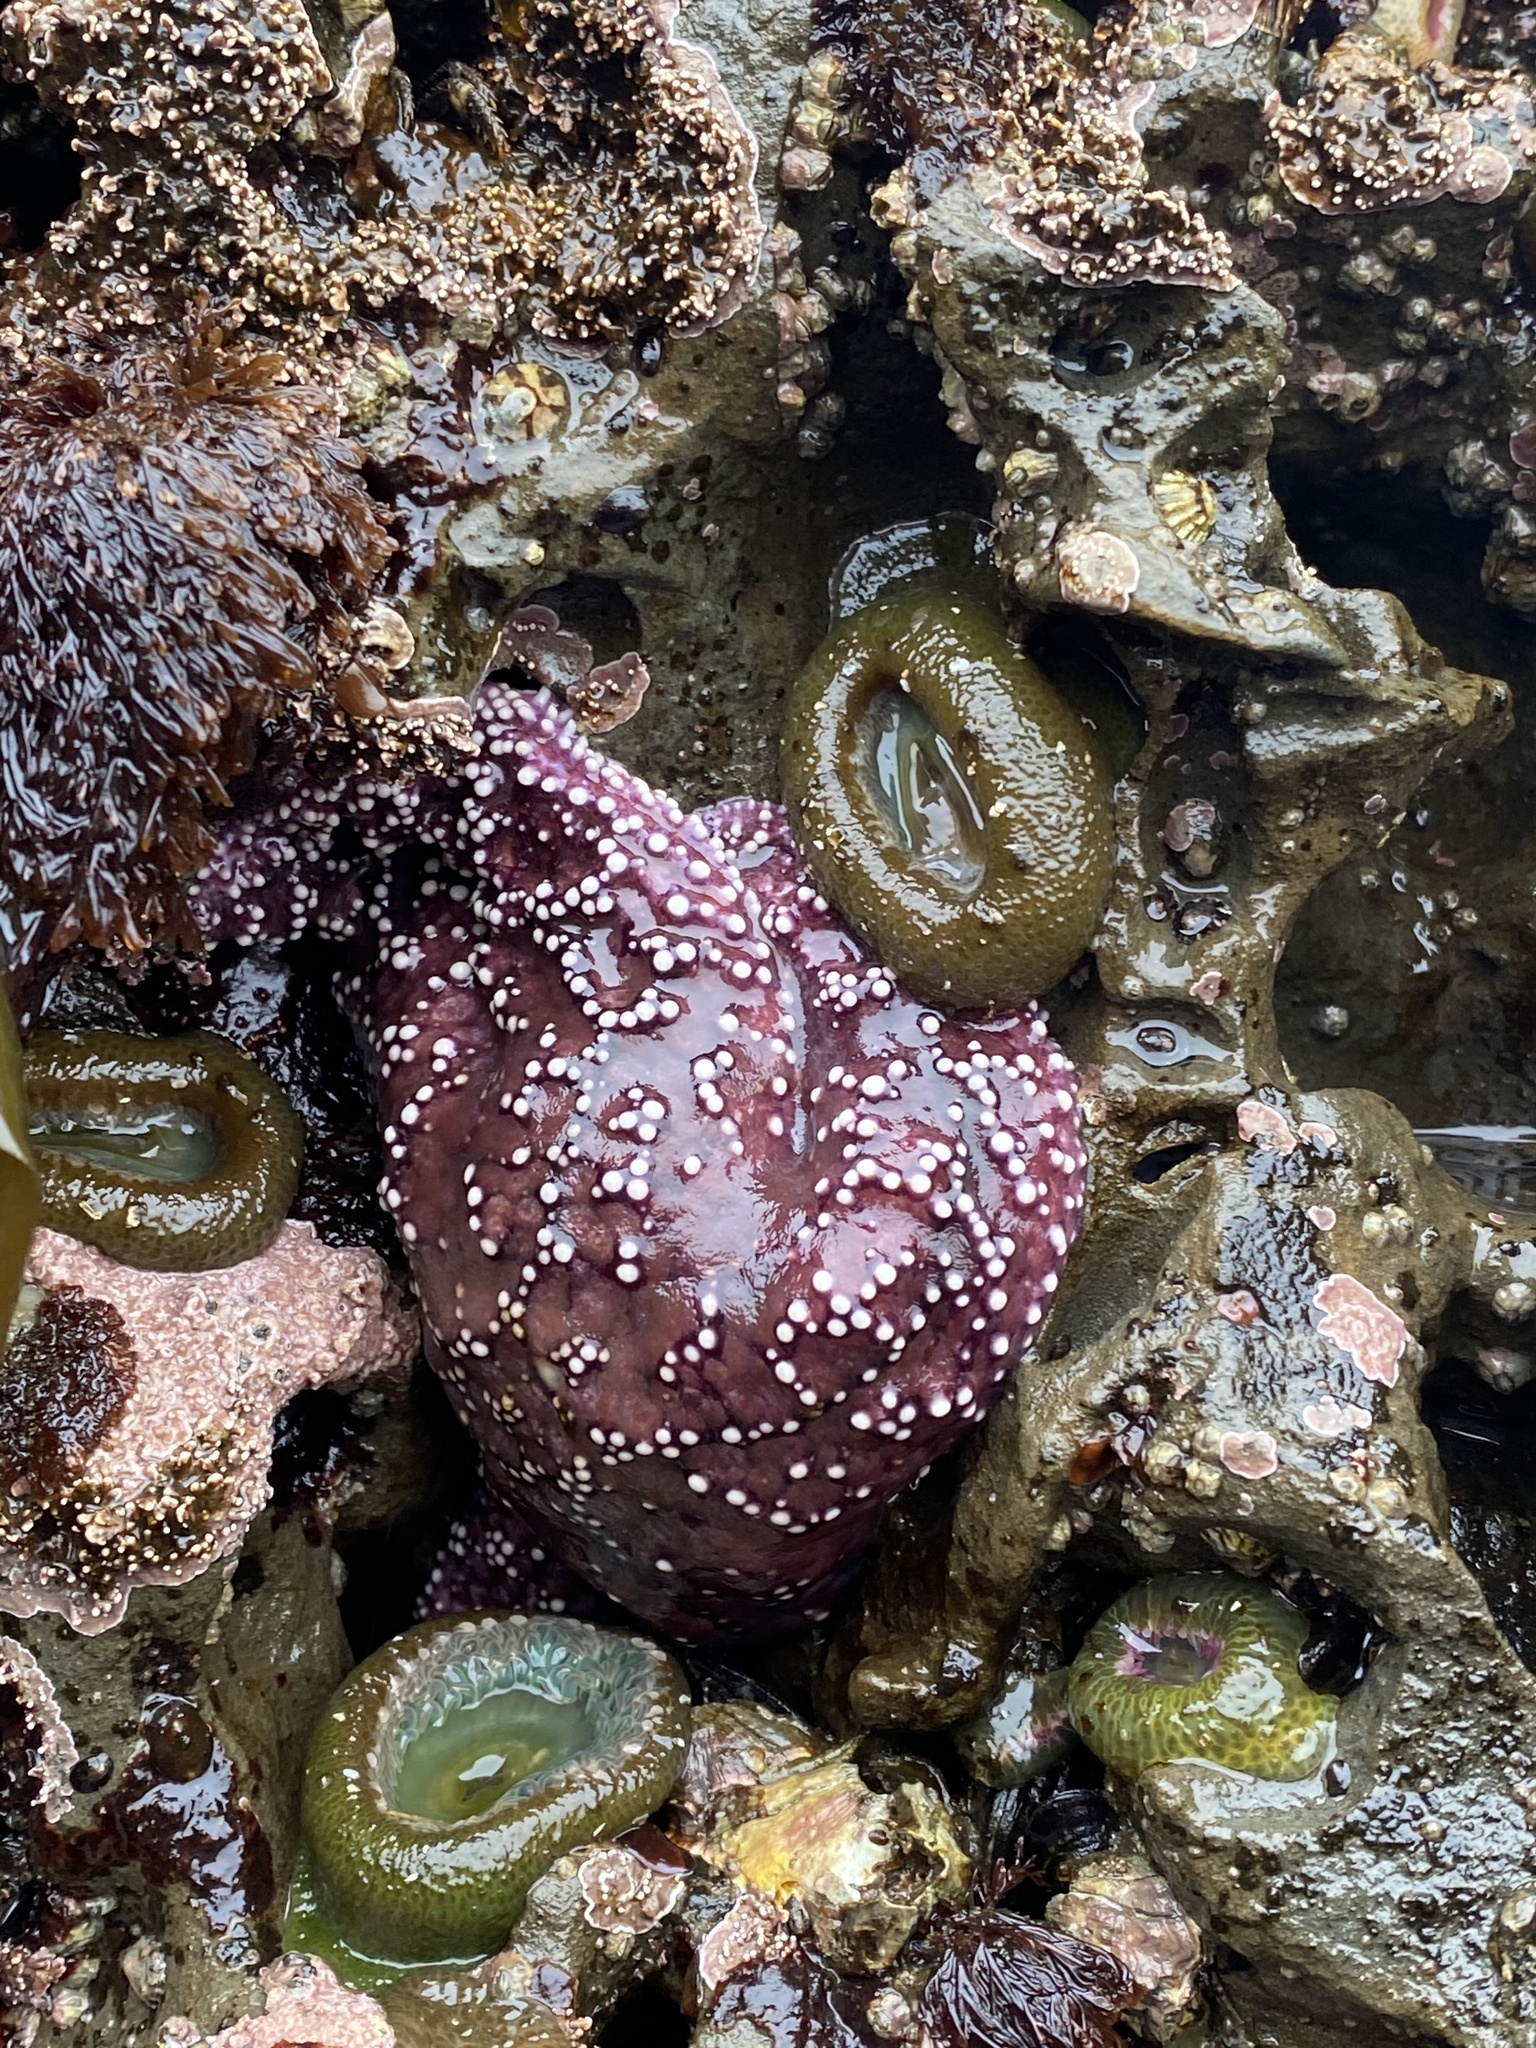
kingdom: Animalia
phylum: Echinodermata
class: Asteroidea
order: Forcipulatida
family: Asteriidae
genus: Pisaster
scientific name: Pisaster ochraceus
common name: Ochre stars
